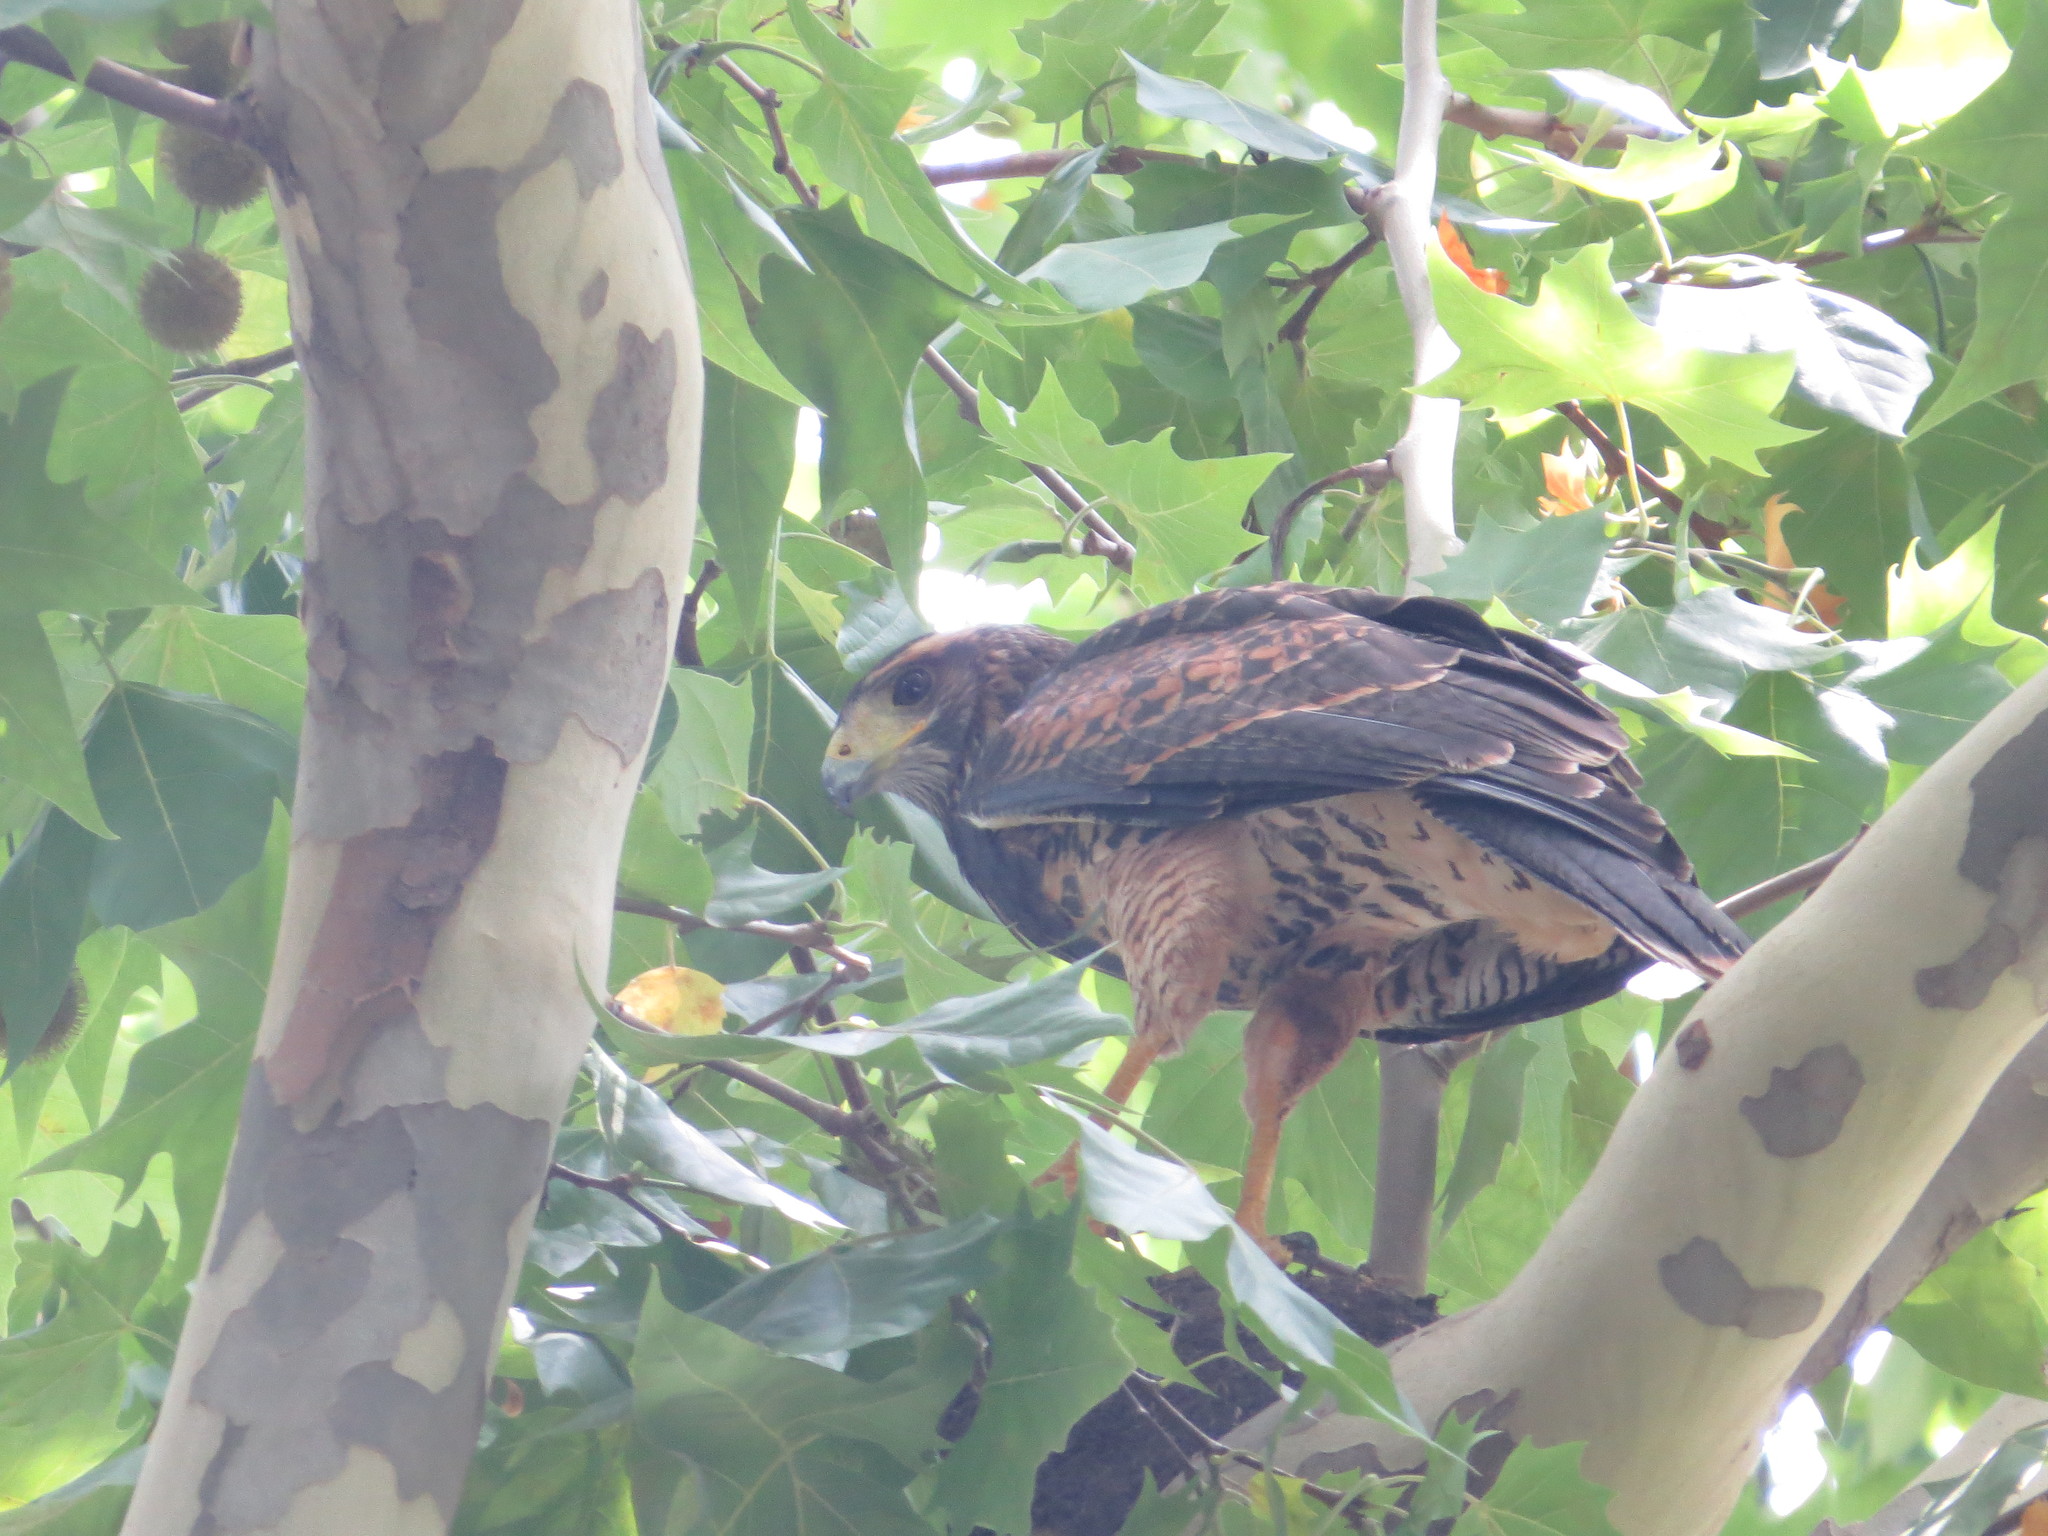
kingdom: Animalia
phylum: Chordata
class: Aves
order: Accipitriformes
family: Accipitridae
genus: Parabuteo
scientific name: Parabuteo unicinctus
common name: Harris's hawk
